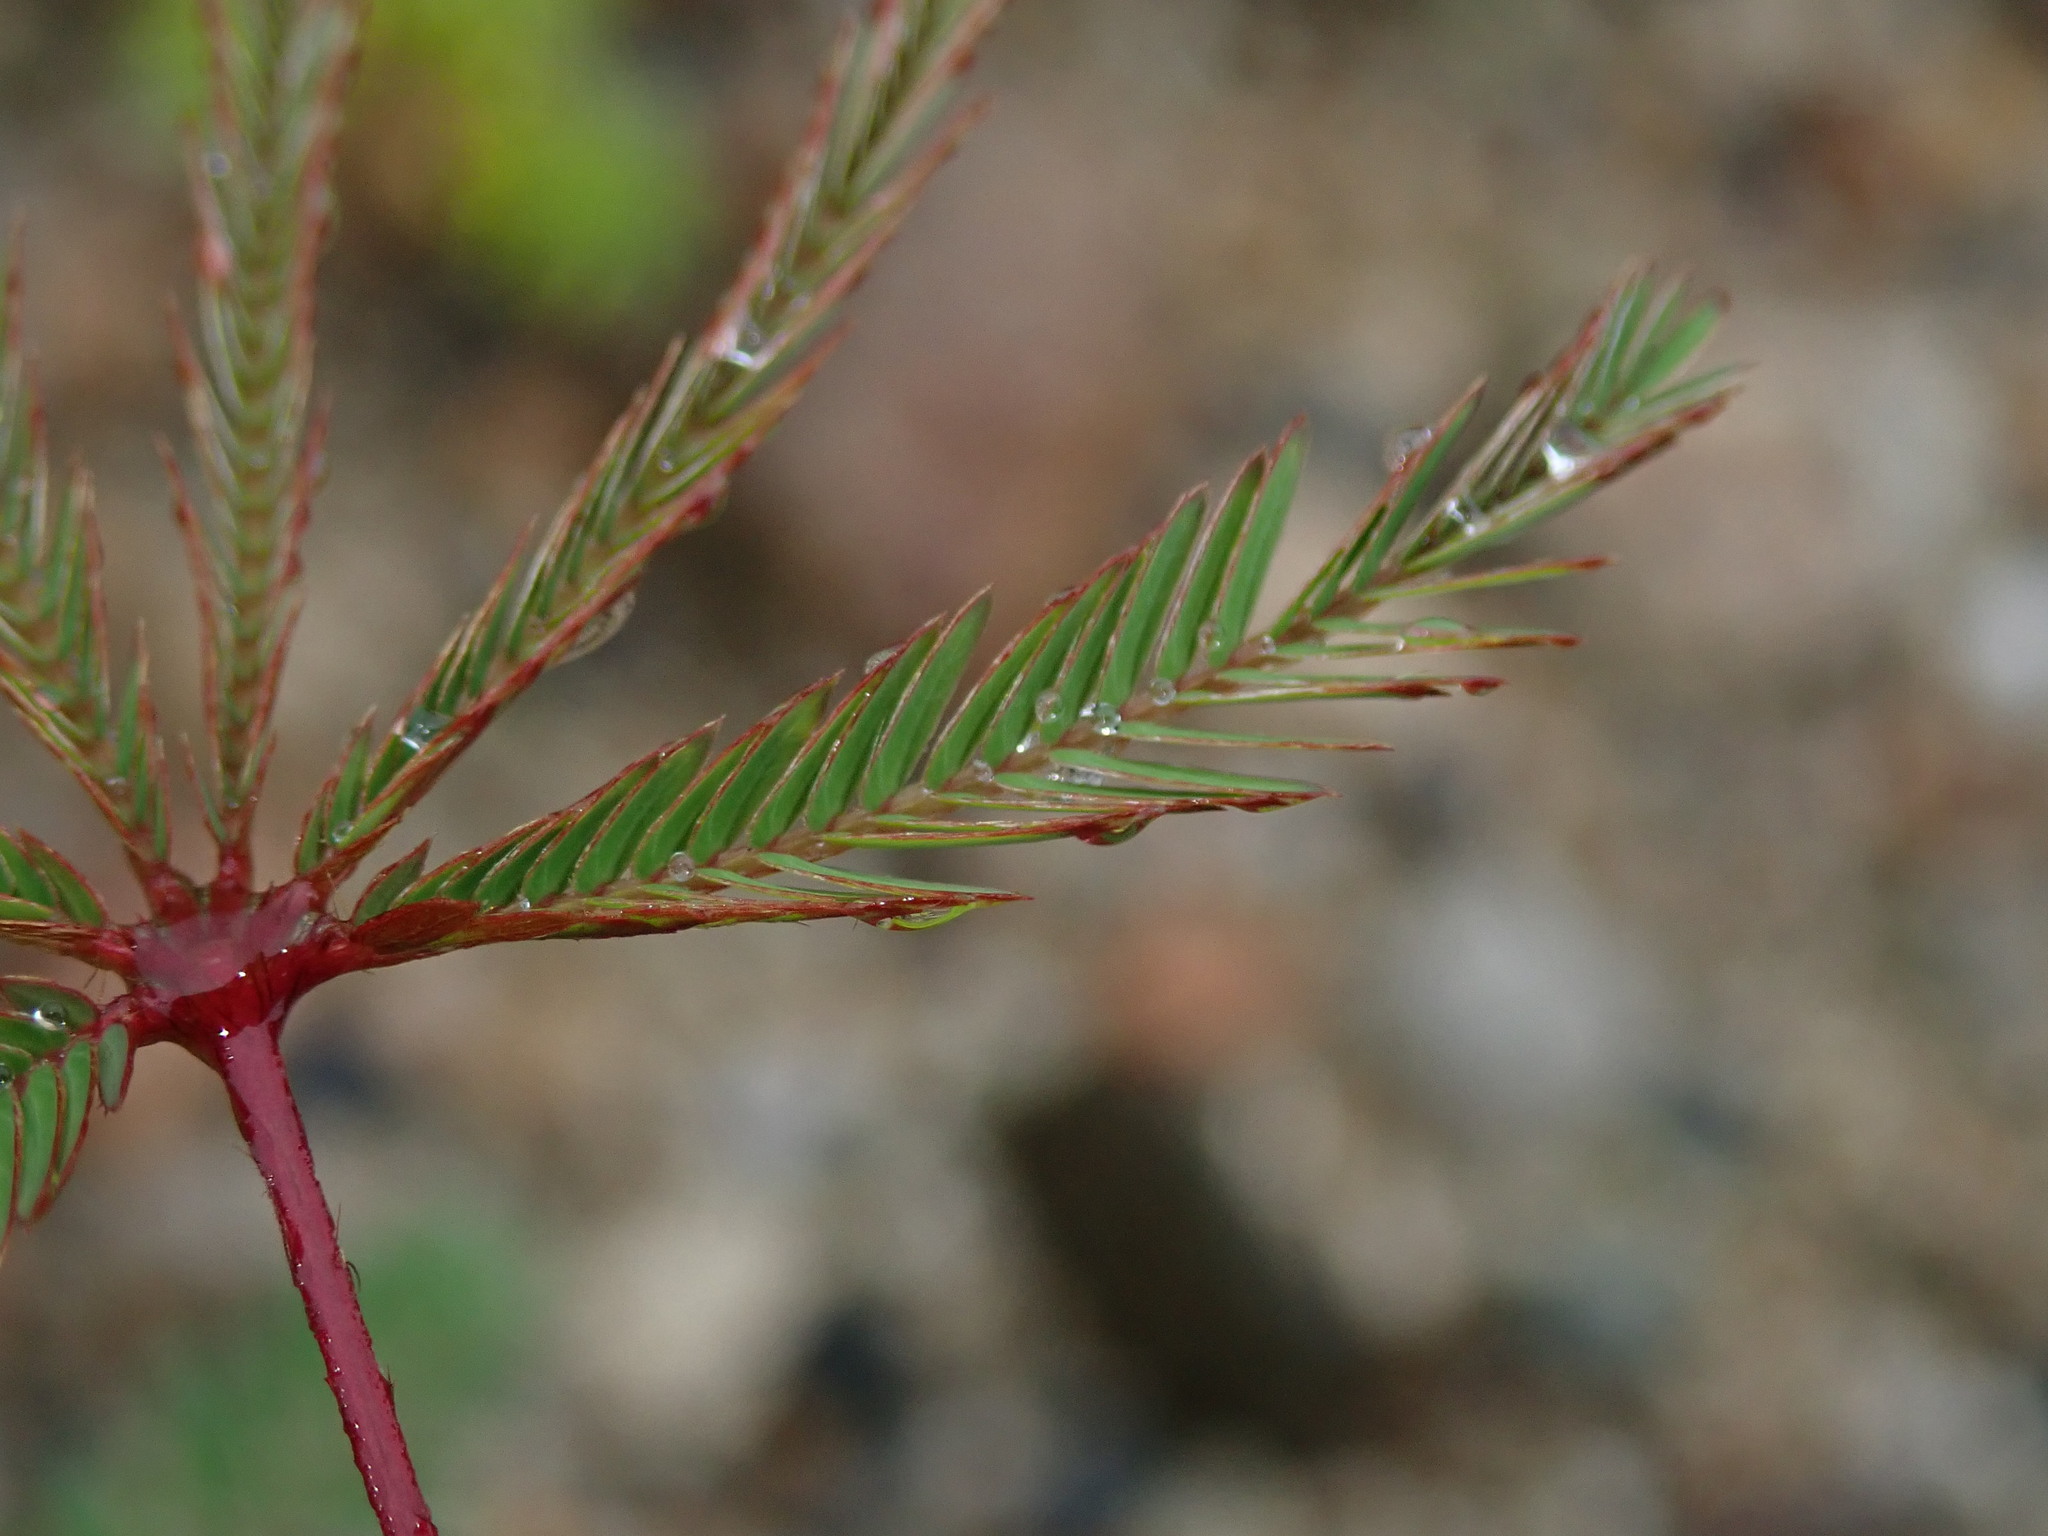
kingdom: Plantae
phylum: Tracheophyta
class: Magnoliopsida
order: Fabales
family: Fabaceae
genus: Mimosa
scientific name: Mimosa pudica
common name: Sensitive plant
